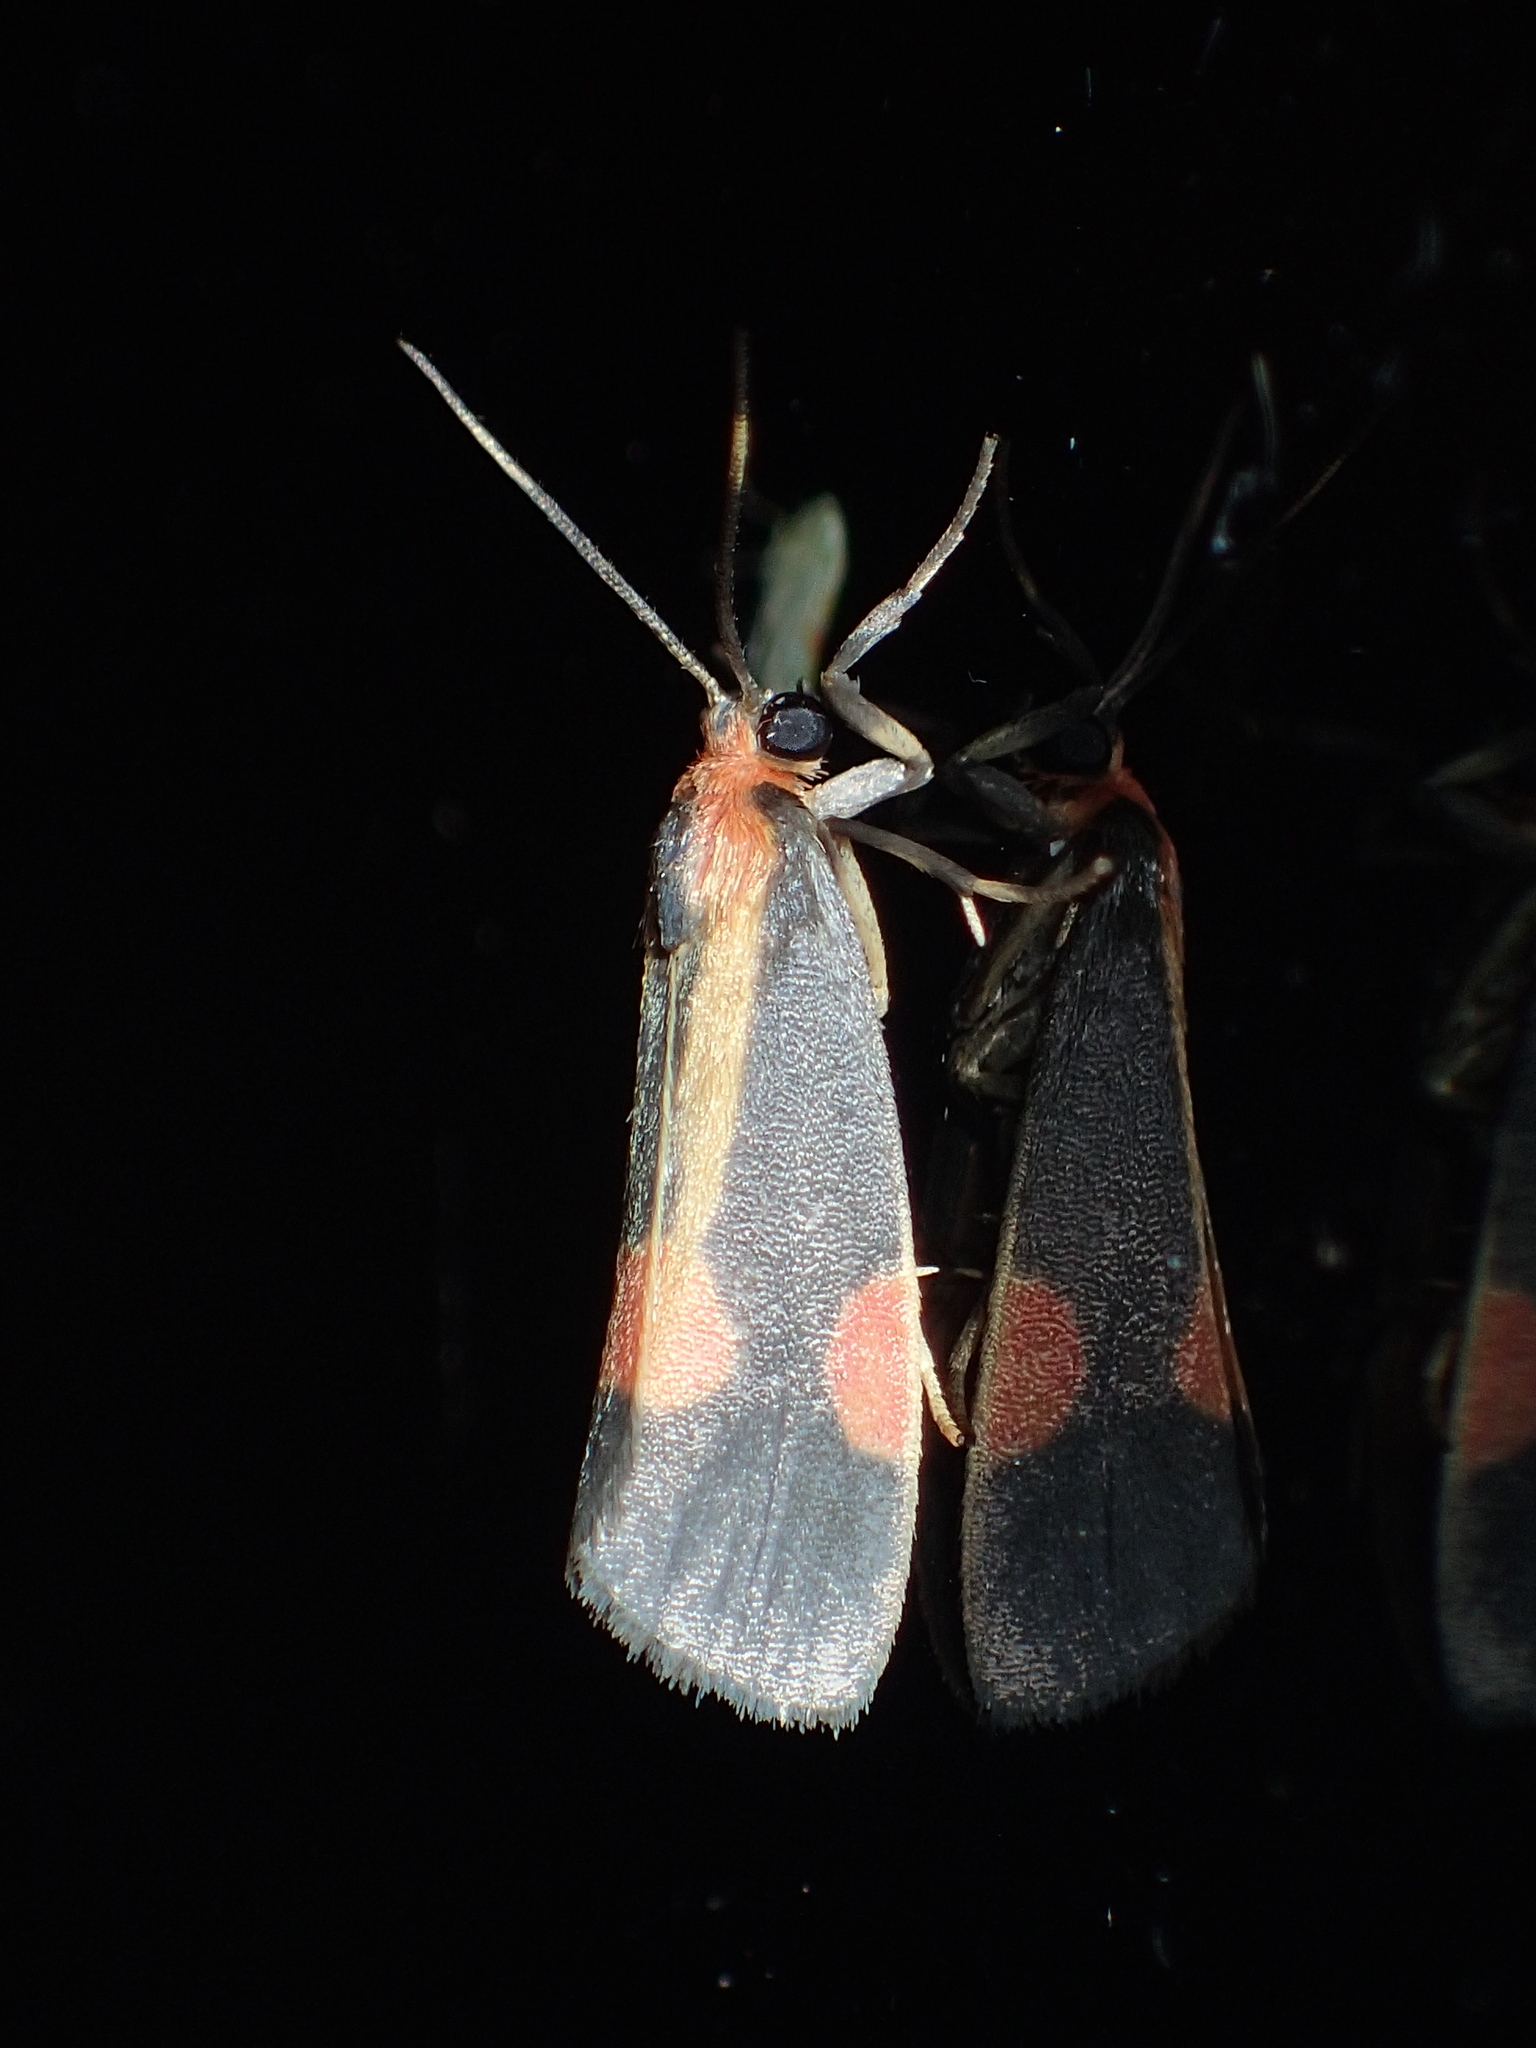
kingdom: Animalia
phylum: Arthropoda
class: Insecta
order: Lepidoptera
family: Erebidae
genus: Cisthene
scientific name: Cisthene packardii
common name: Packard's lichen moth
